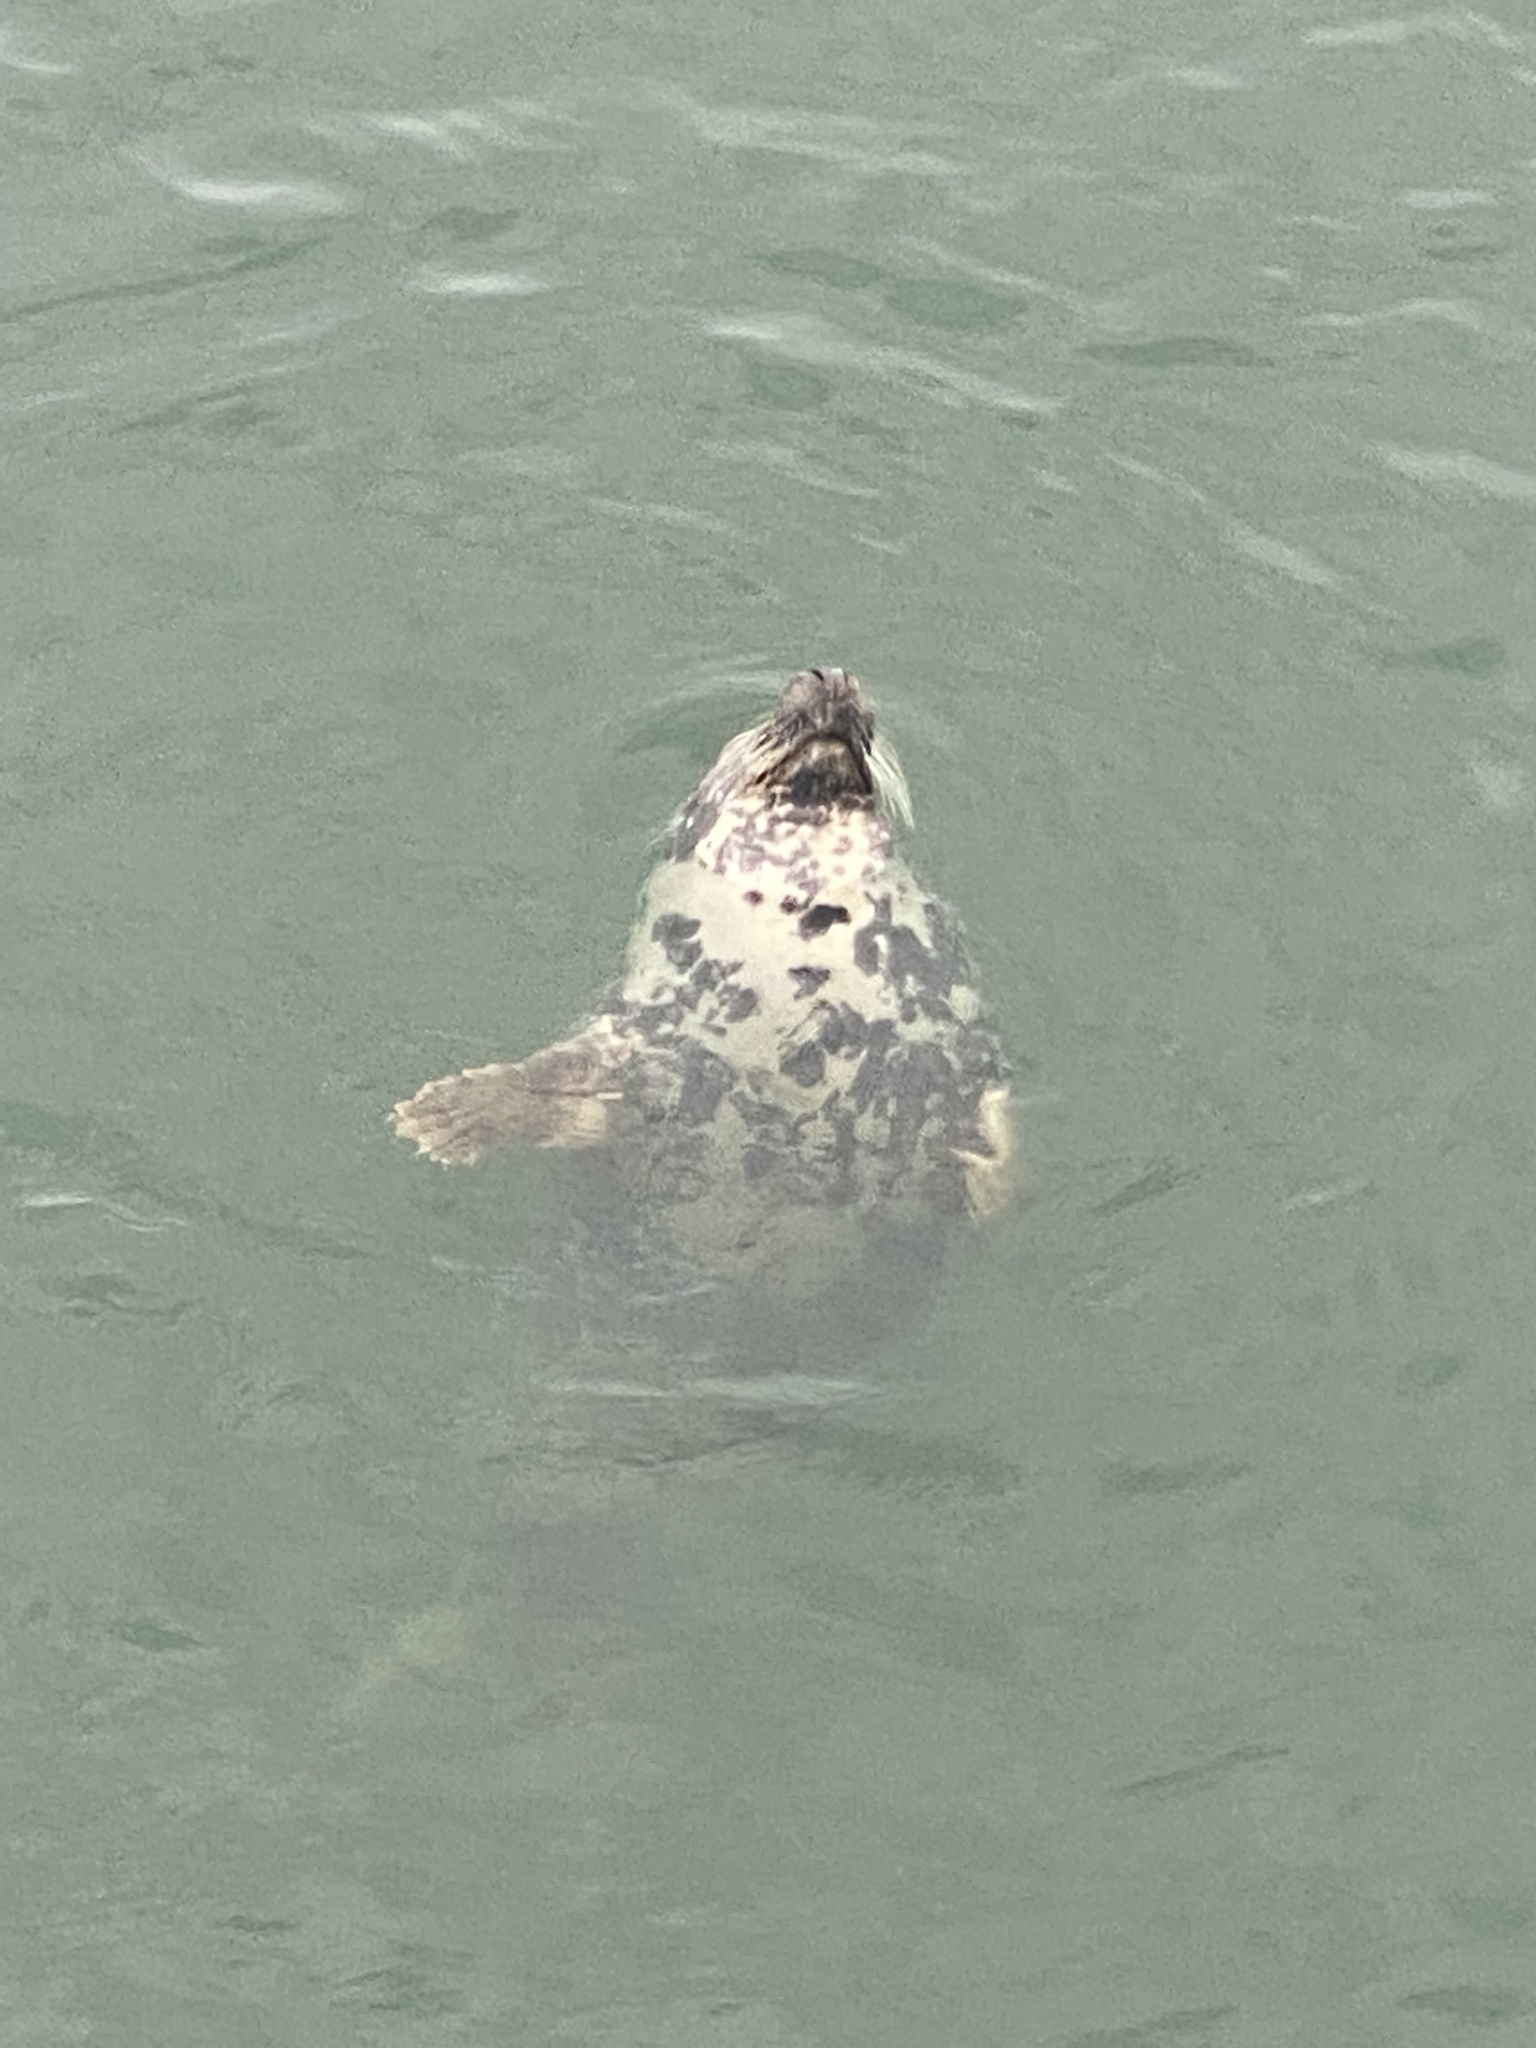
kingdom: Animalia
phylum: Chordata
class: Mammalia
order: Carnivora
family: Phocidae
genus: Halichoerus
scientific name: Halichoerus grypus
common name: Grey seal
